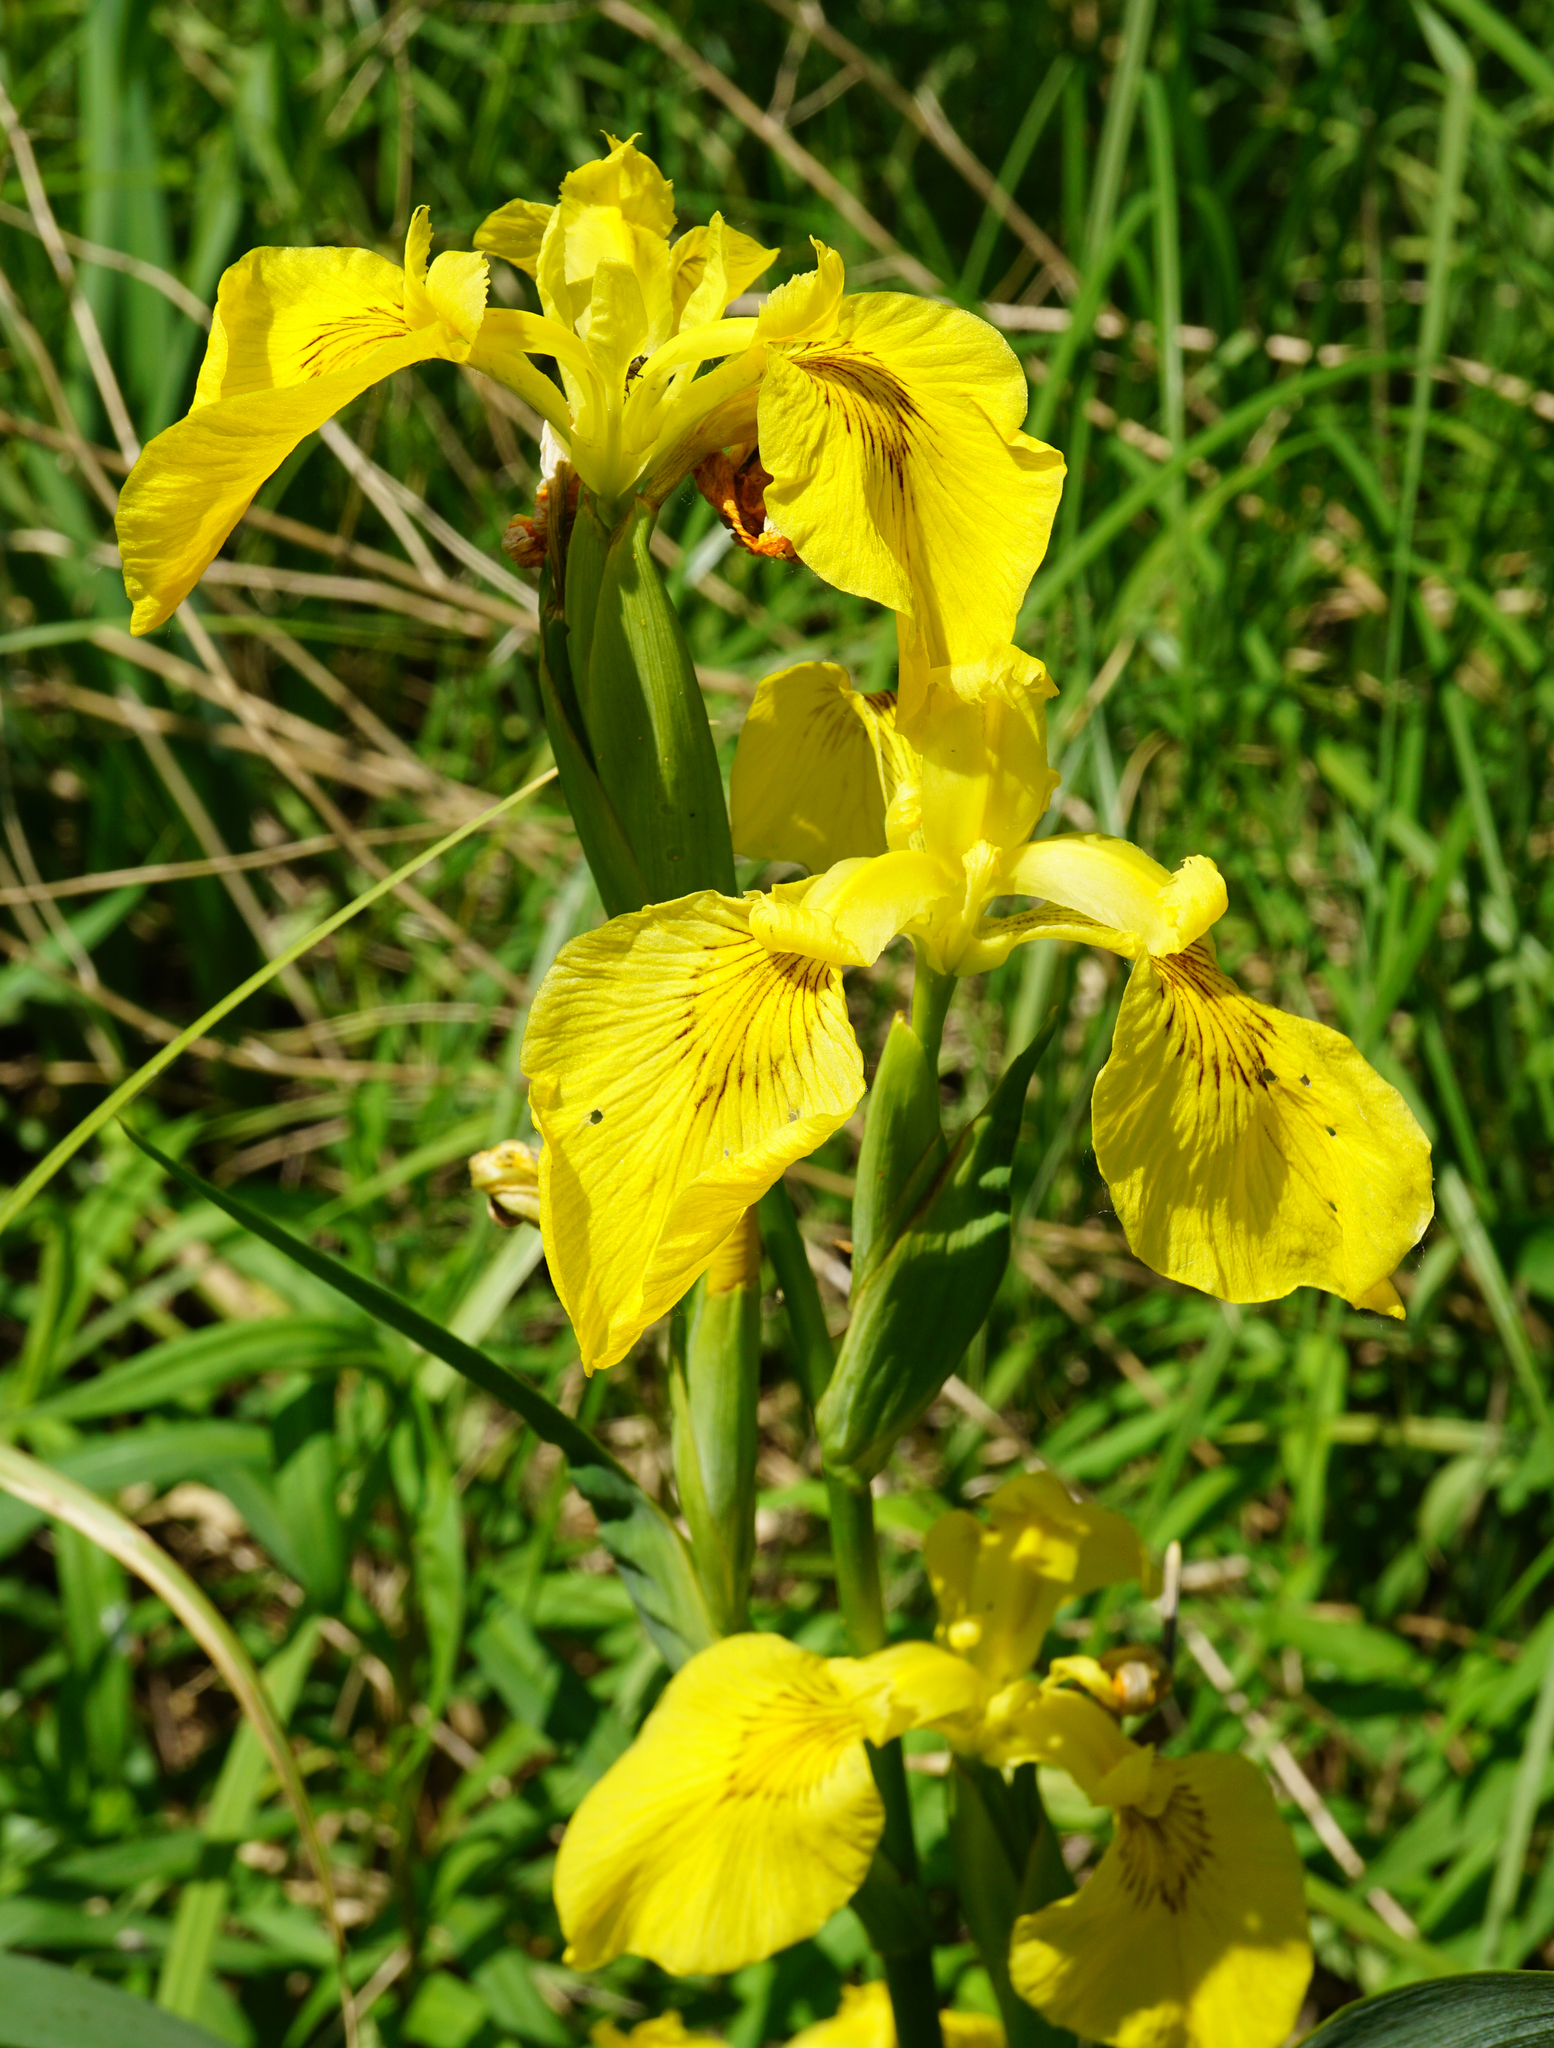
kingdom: Plantae
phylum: Tracheophyta
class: Liliopsida
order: Asparagales
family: Iridaceae
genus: Iris
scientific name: Iris pseudacorus
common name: Yellow flag
